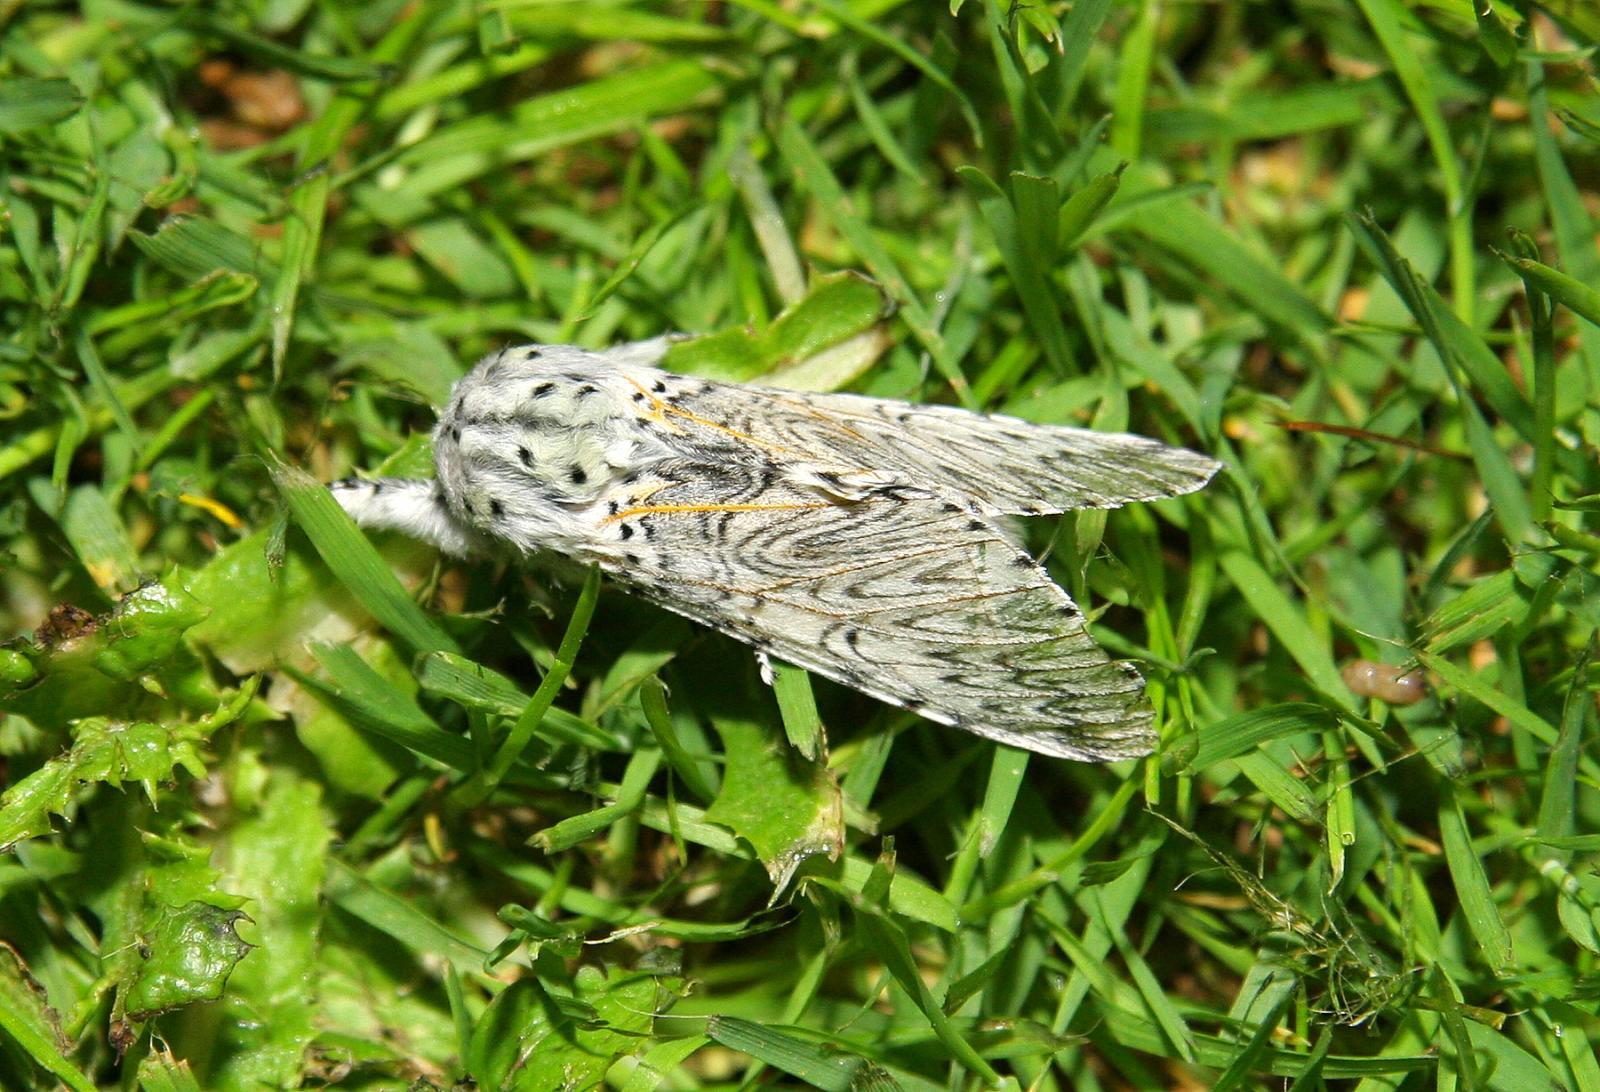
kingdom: Animalia
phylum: Arthropoda
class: Insecta
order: Lepidoptera
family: Notodontidae
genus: Cerura
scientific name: Cerura vinula
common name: Puss moth
